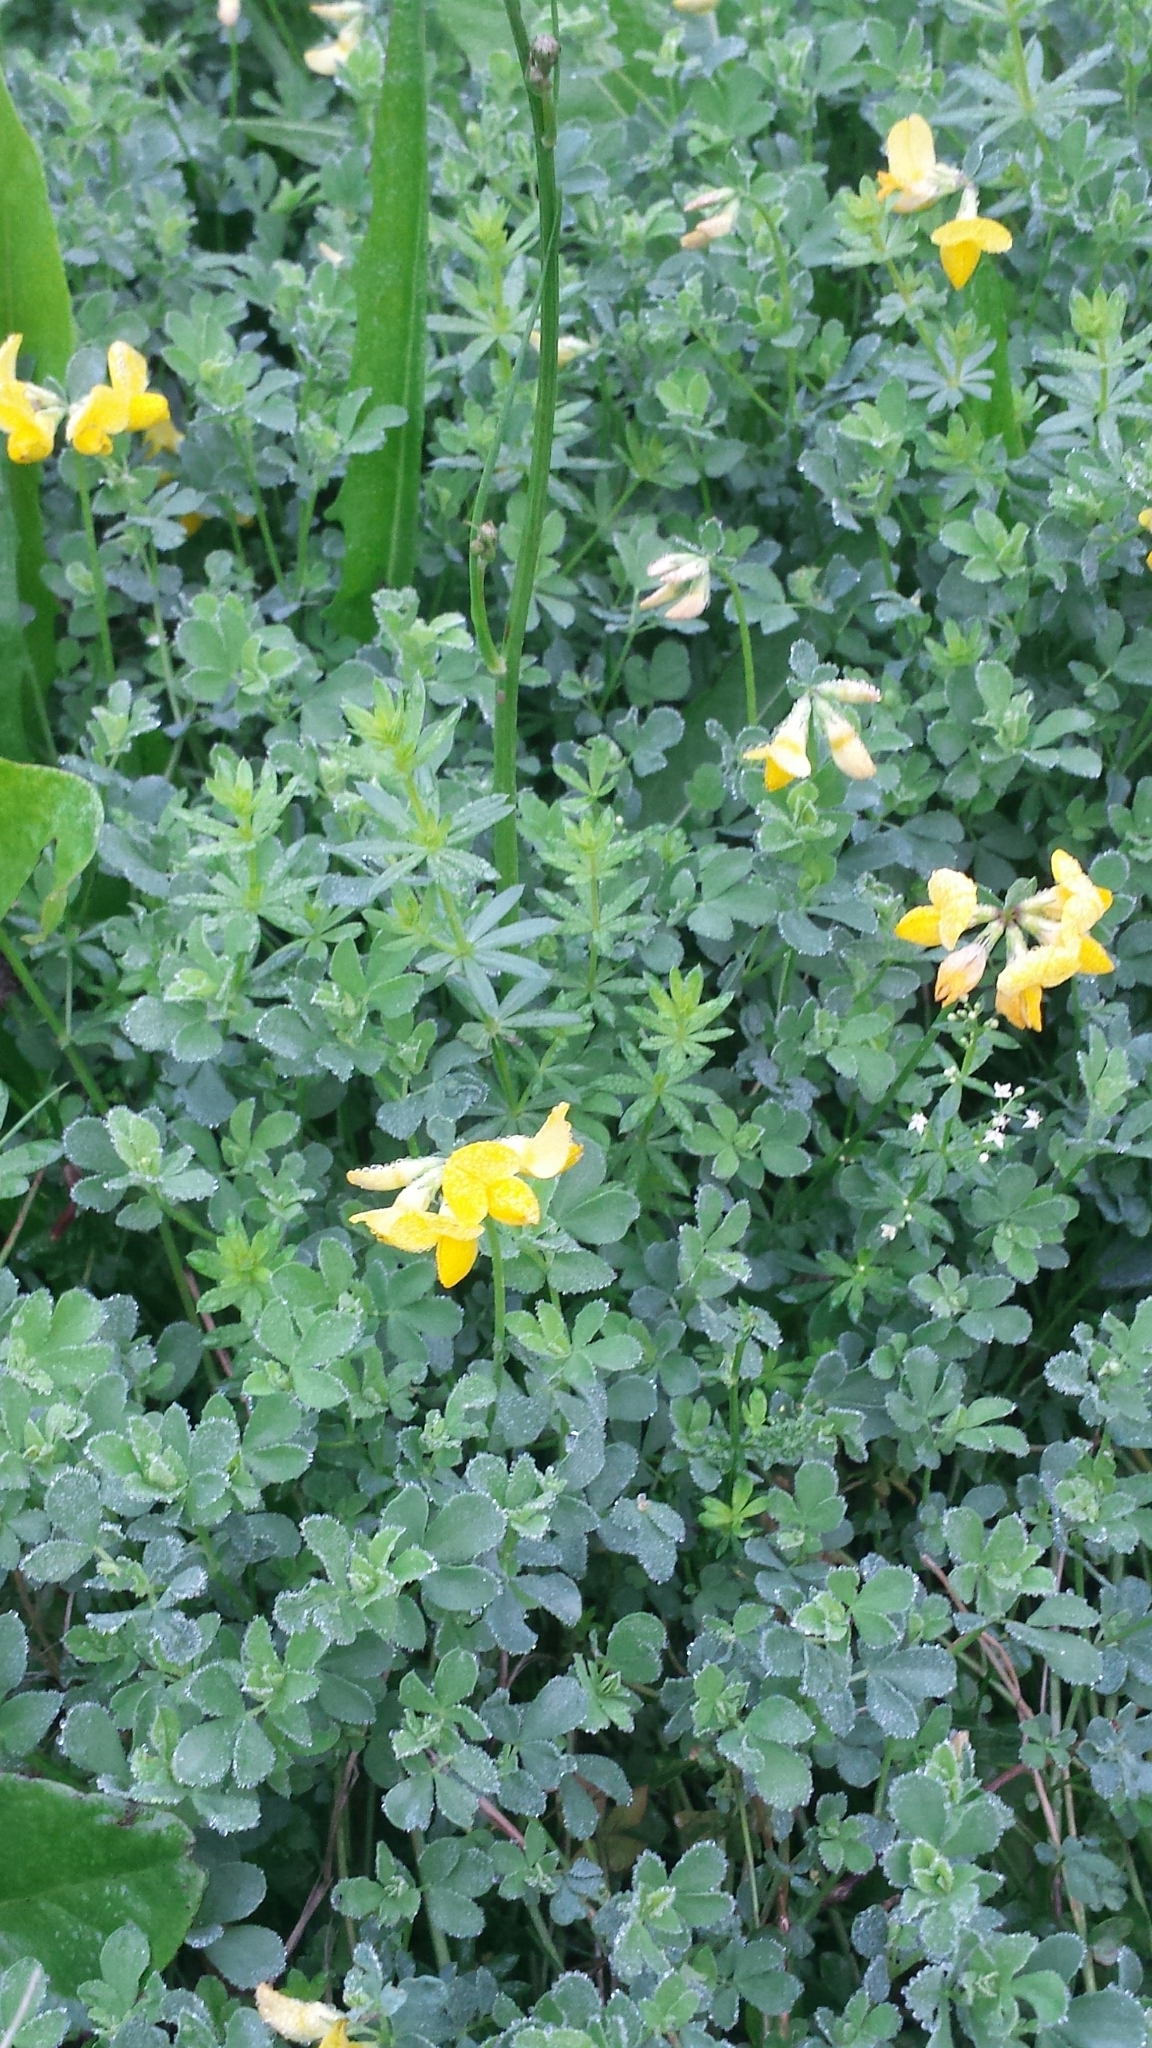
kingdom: Plantae
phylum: Tracheophyta
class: Magnoliopsida
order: Fabales
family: Fabaceae
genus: Lotus
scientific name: Lotus corniculatus
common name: Common bird's-foot-trefoil
